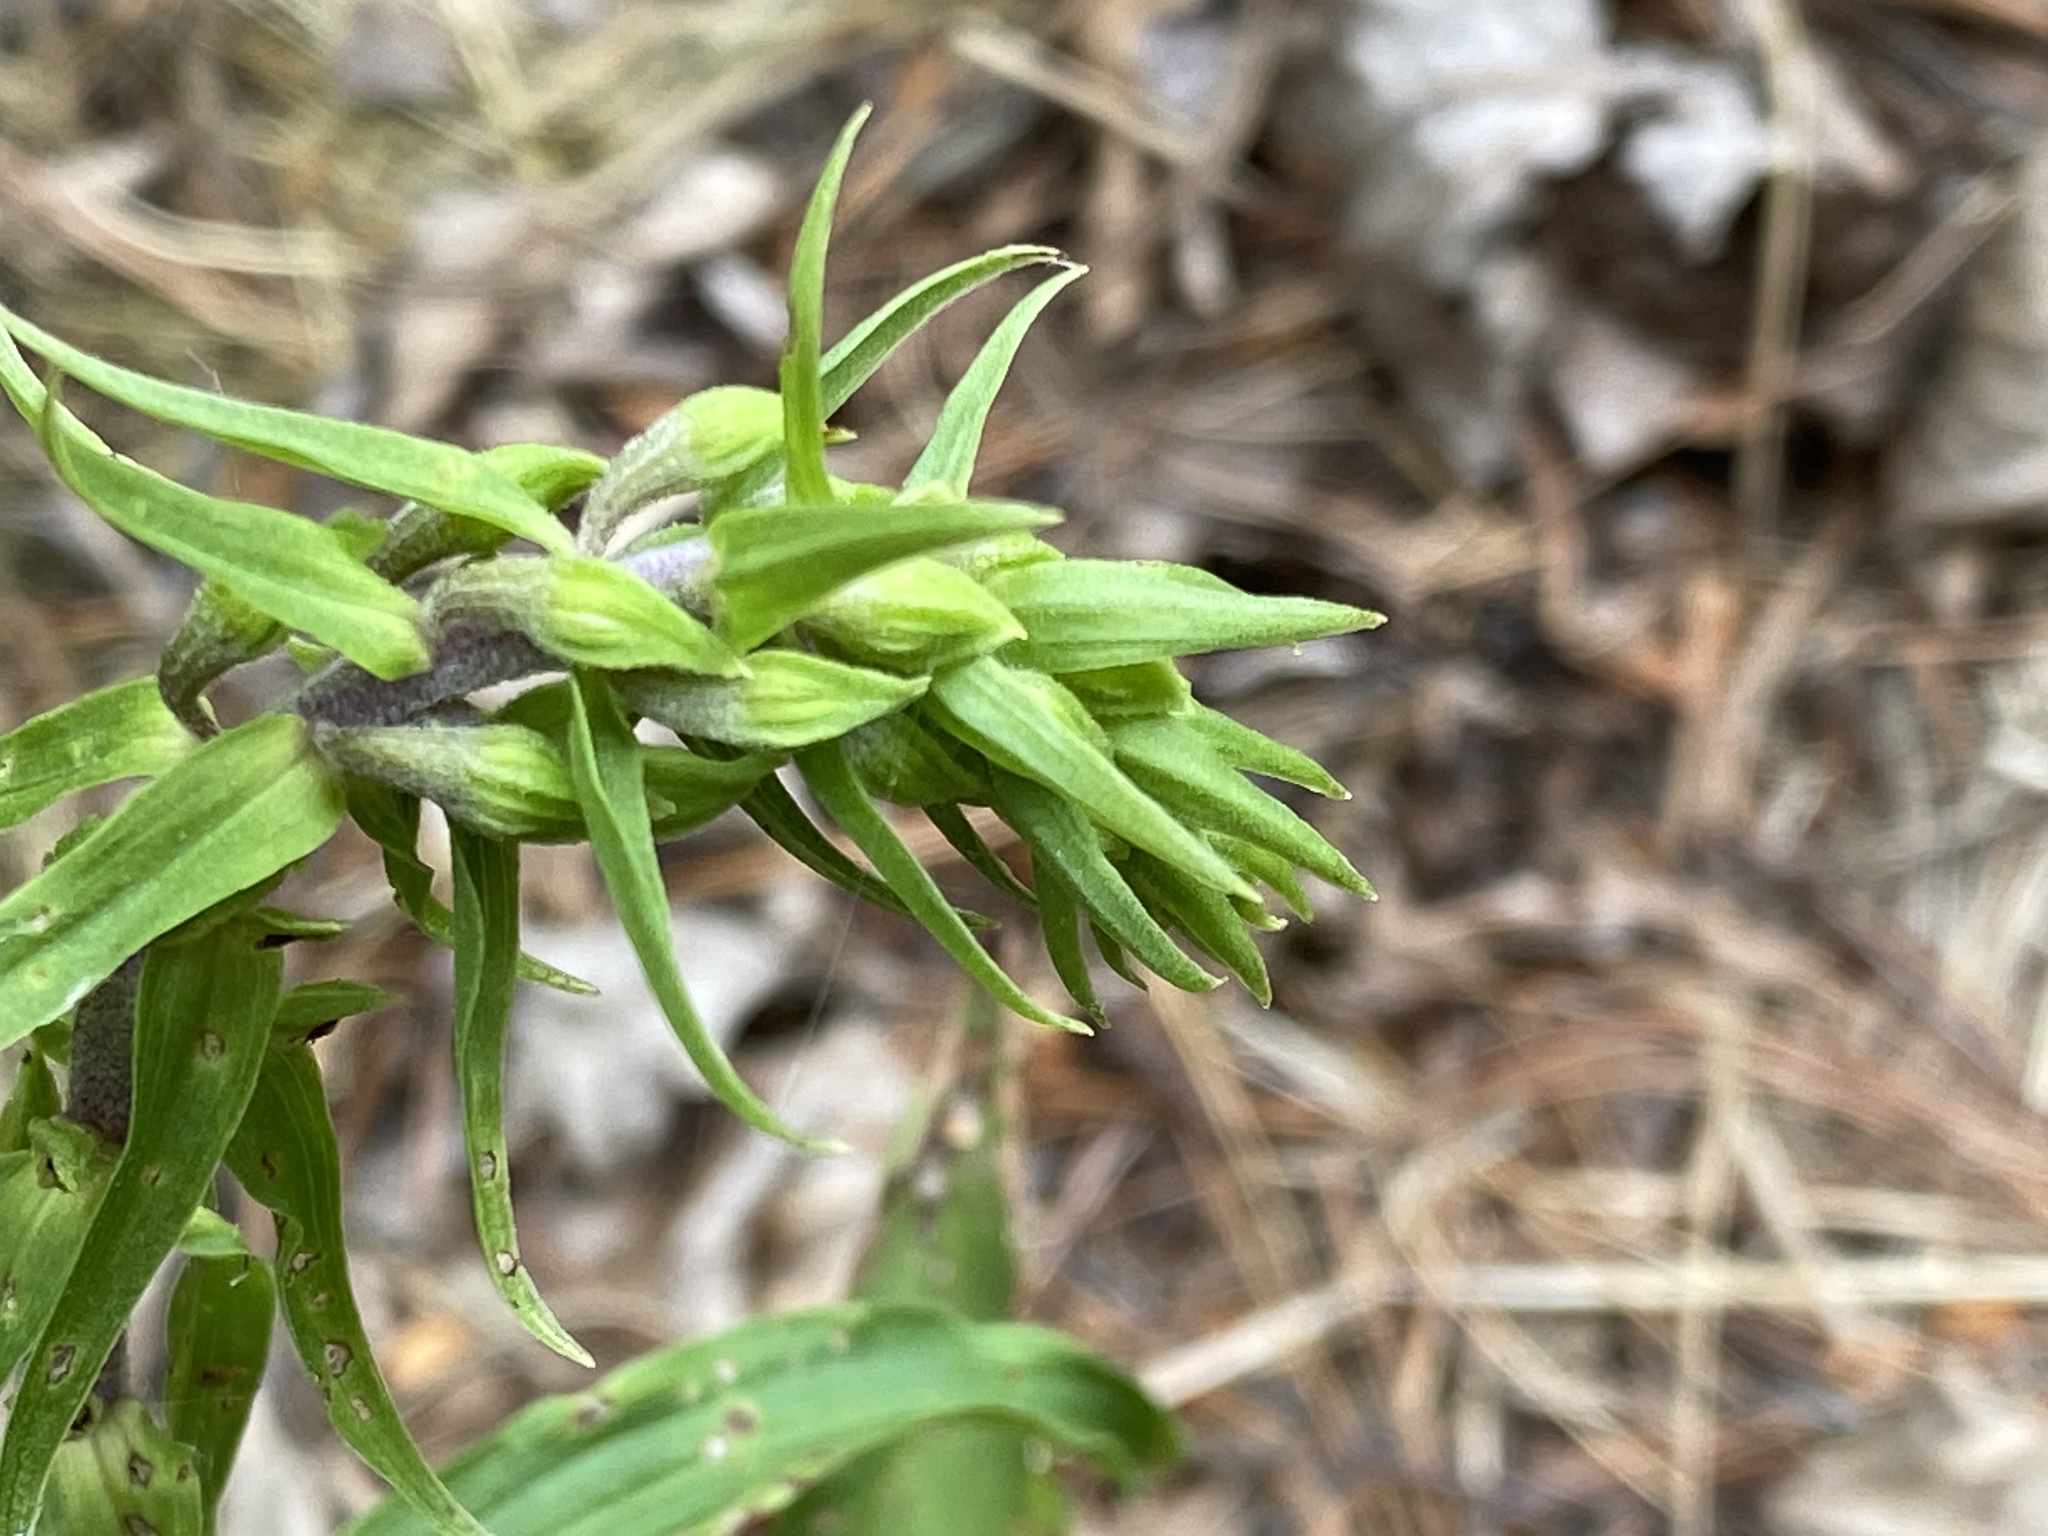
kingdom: Plantae
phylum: Tracheophyta
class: Liliopsida
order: Asparagales
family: Orchidaceae
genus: Epipactis
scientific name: Epipactis helleborine
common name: Broad-leaved helleborine
